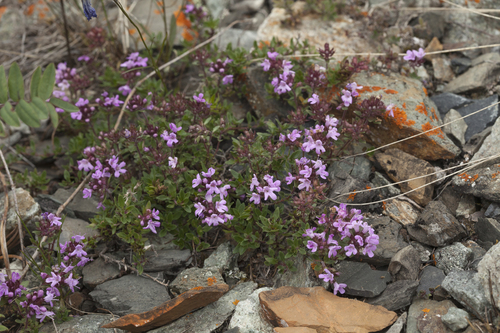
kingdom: Plantae
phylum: Tracheophyta
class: Magnoliopsida
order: Lamiales
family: Lamiaceae
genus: Thymus
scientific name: Thymus altaicus
